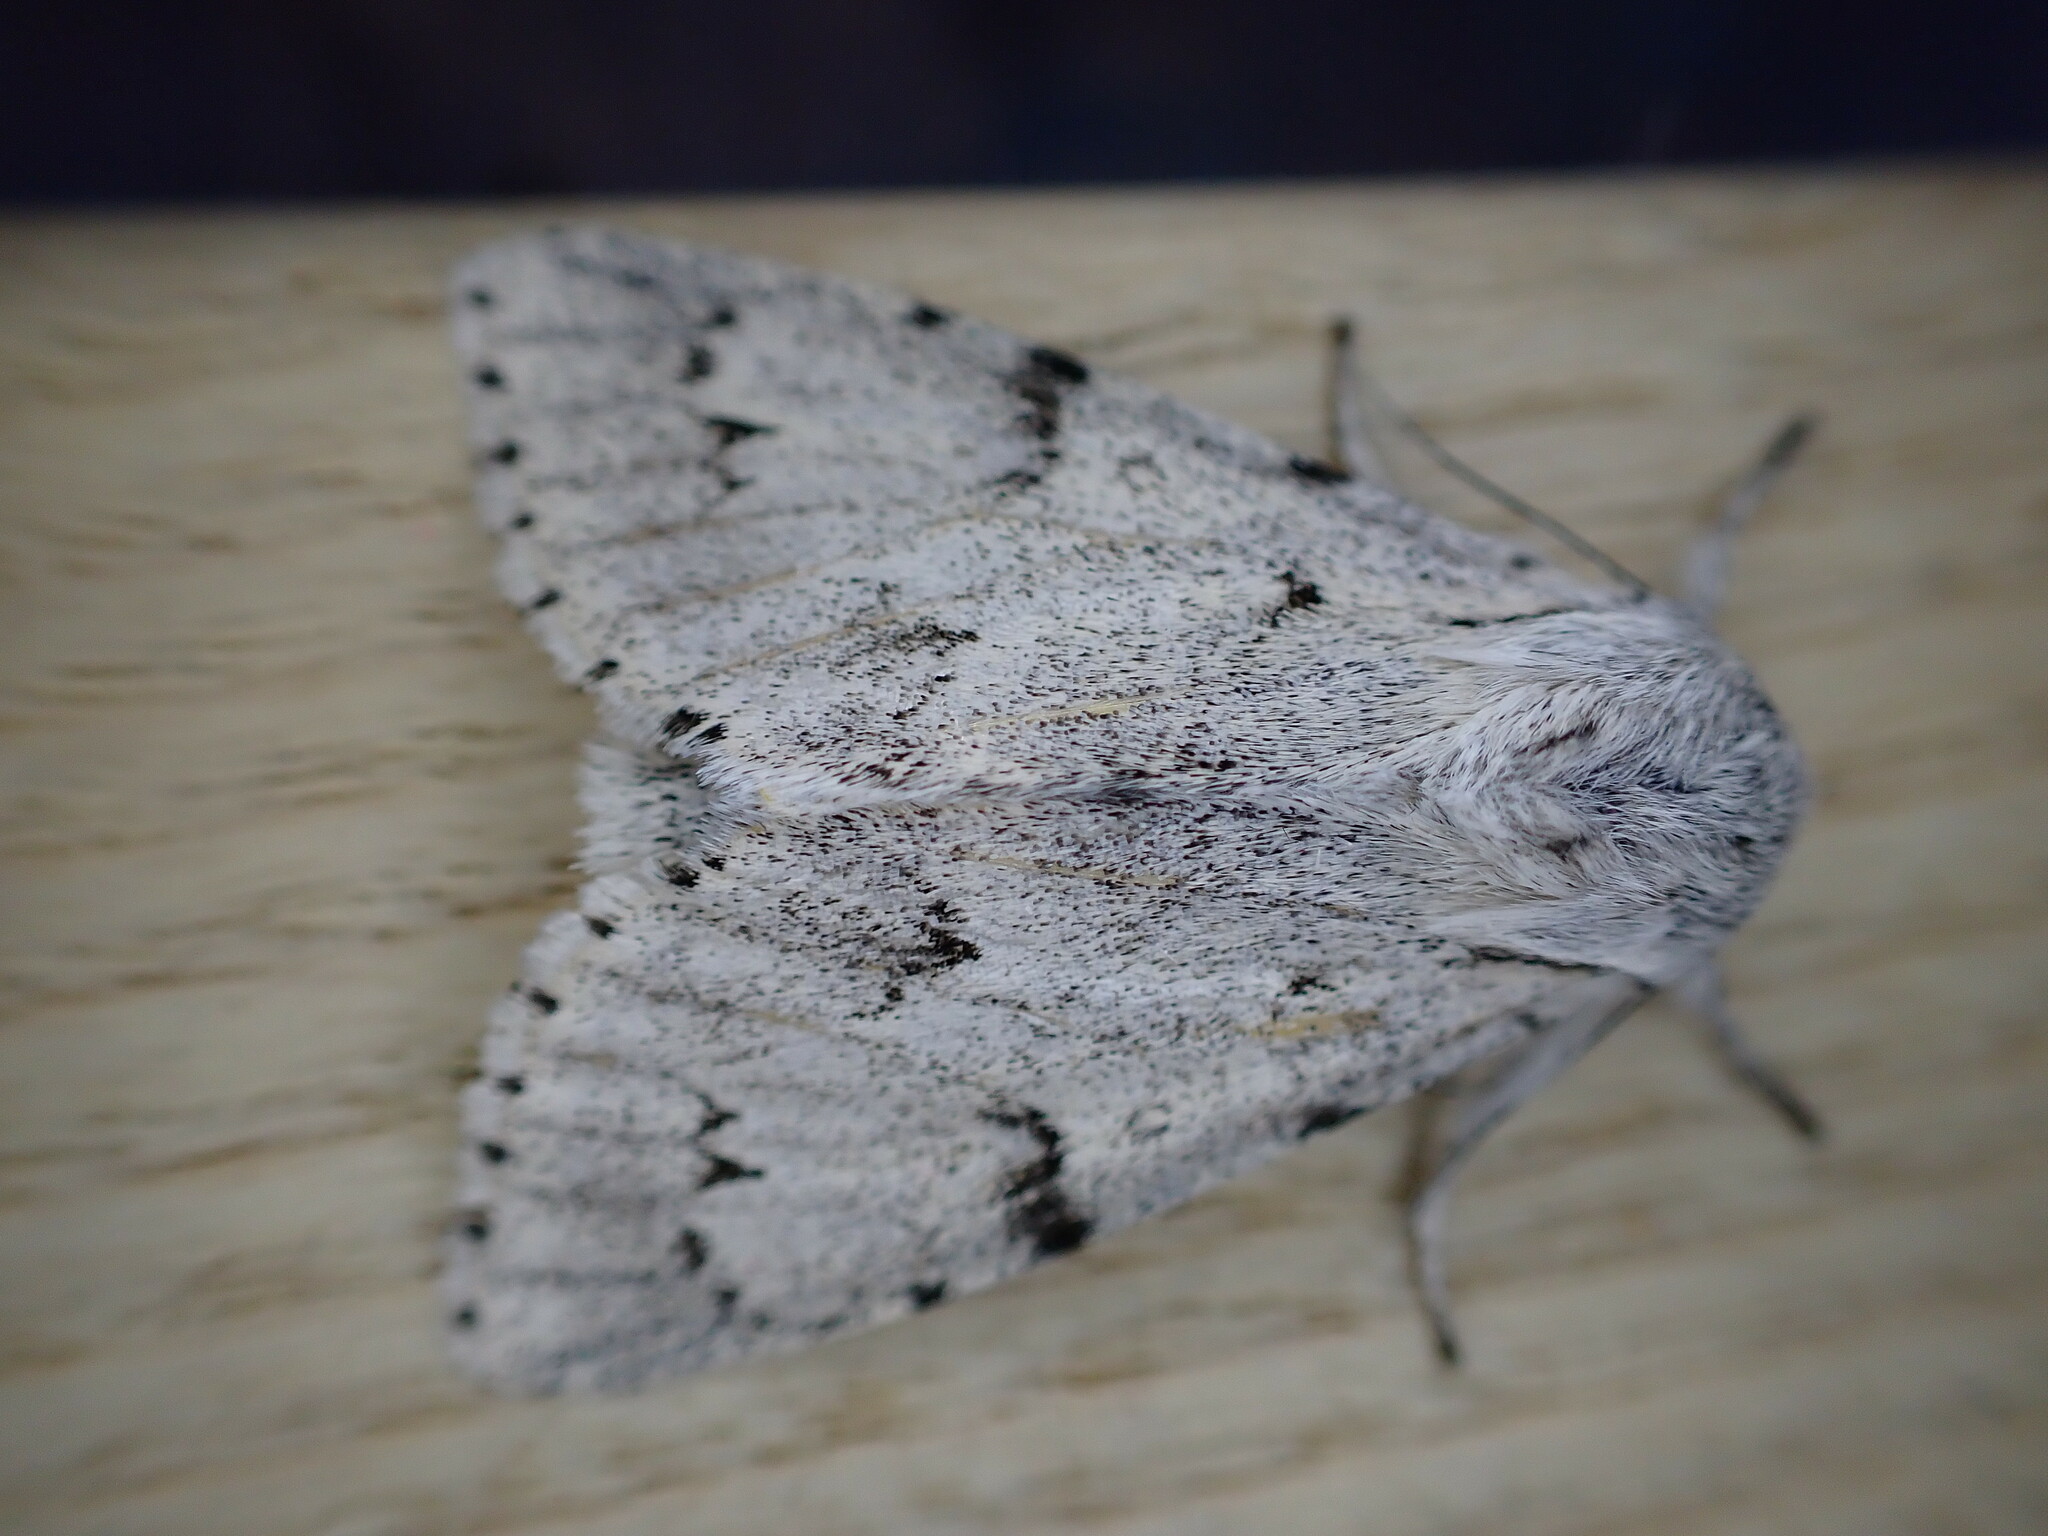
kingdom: Animalia
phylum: Arthropoda
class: Insecta
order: Lepidoptera
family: Noctuidae
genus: Acronicta
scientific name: Acronicta leporina
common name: Miller
